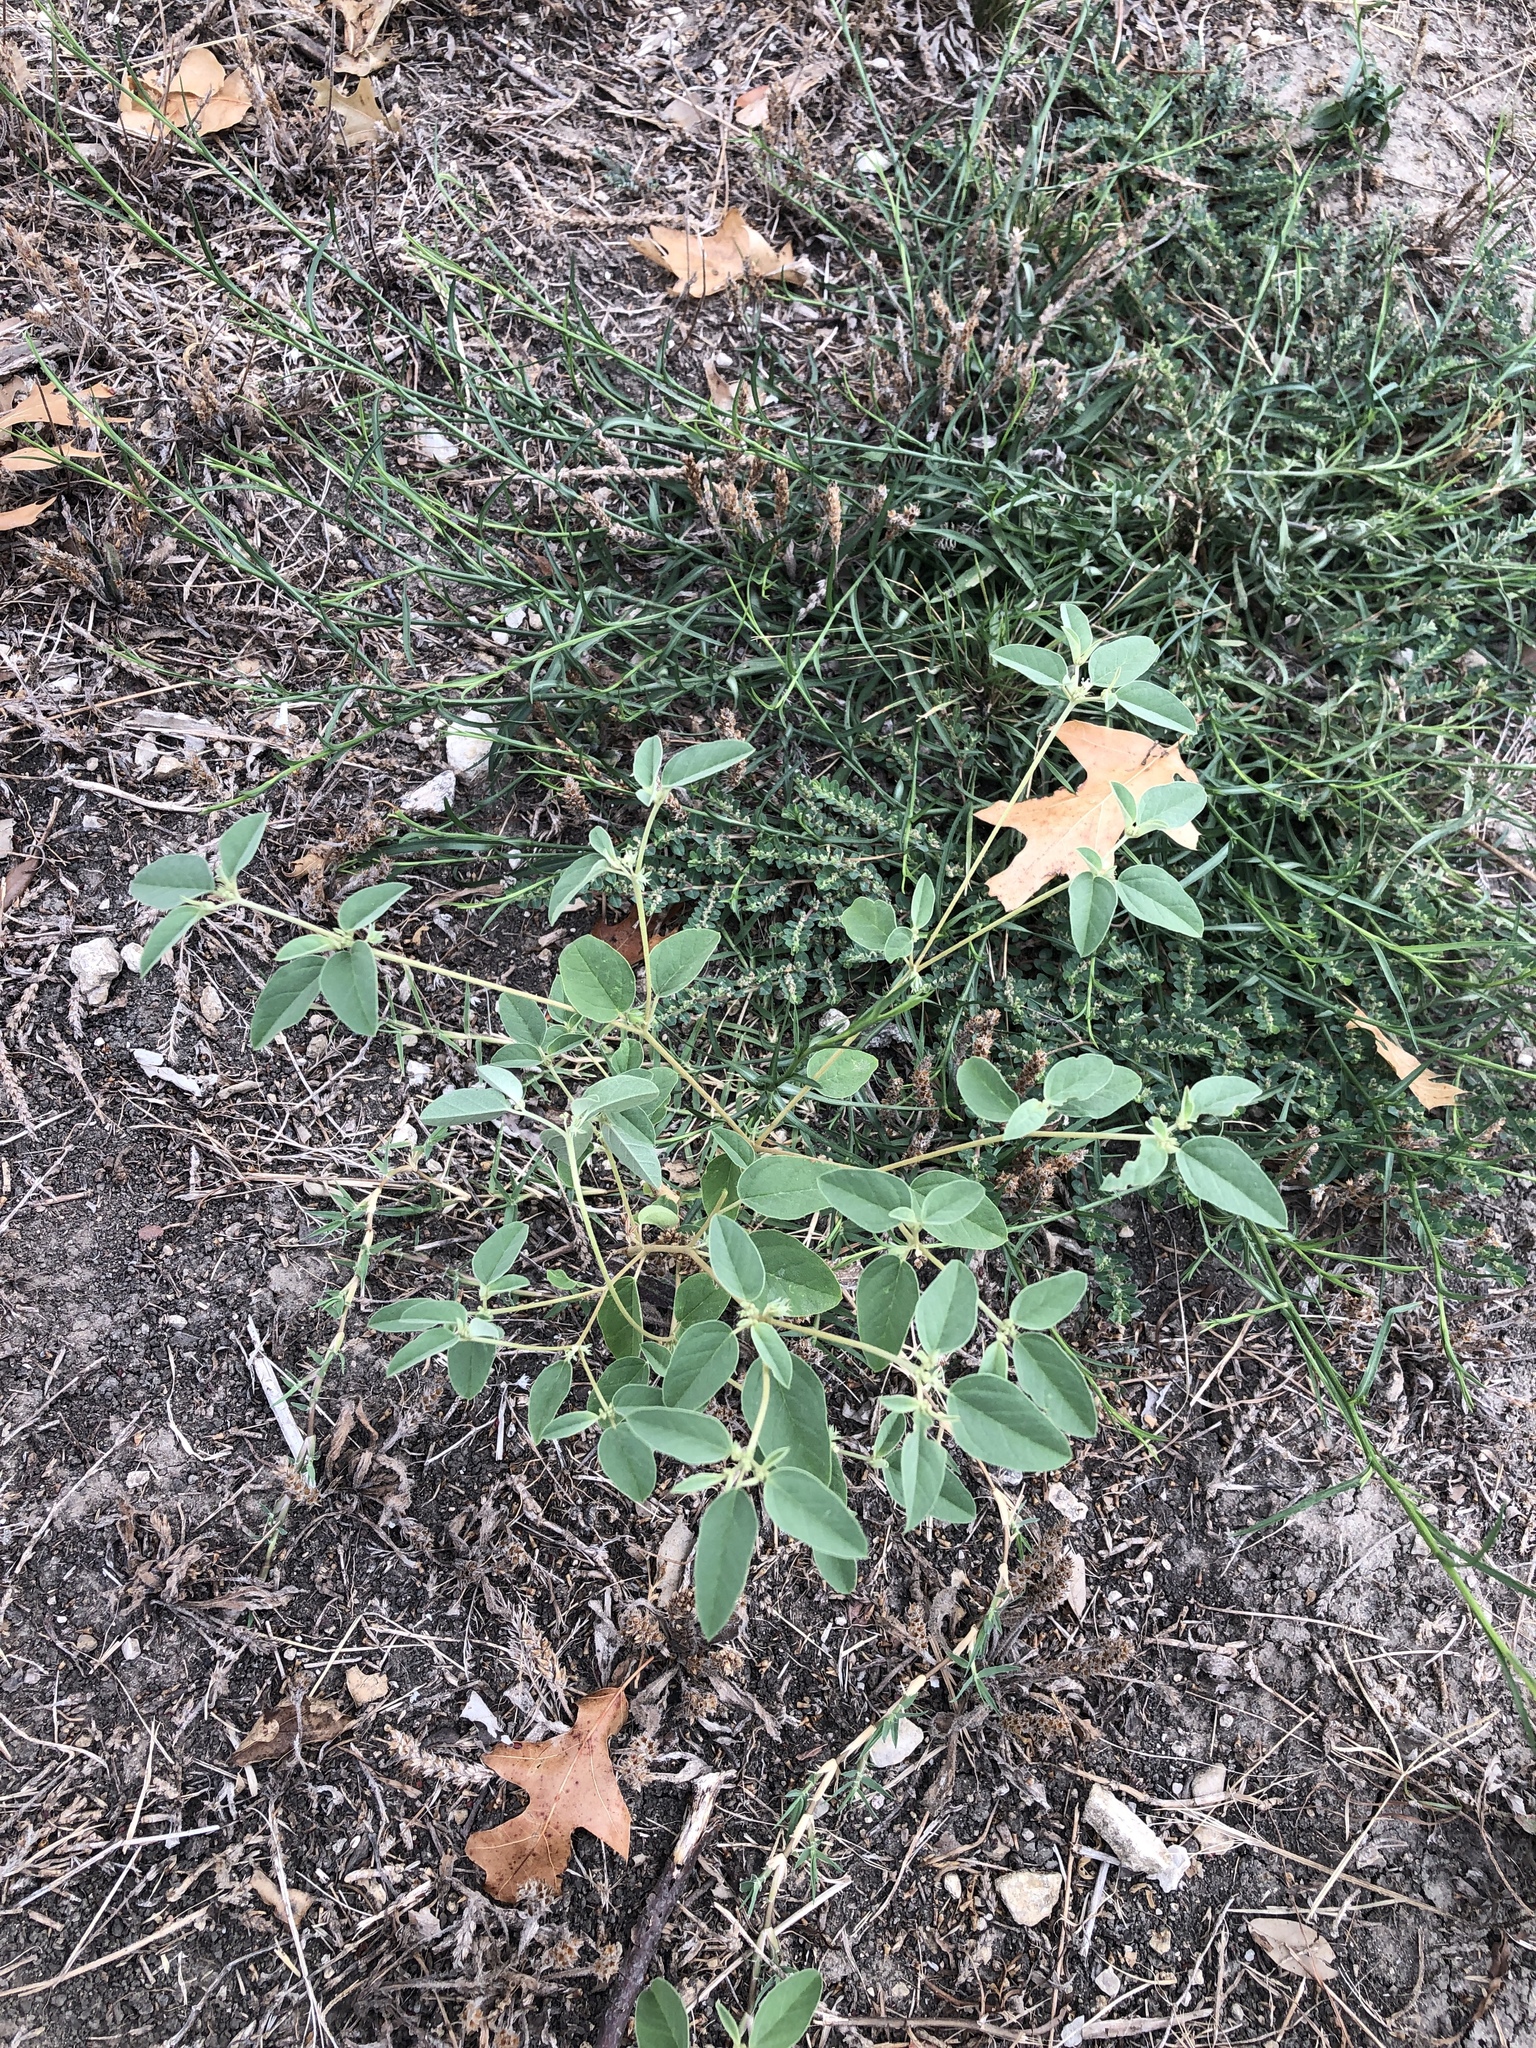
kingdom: Plantae
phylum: Tracheophyta
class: Magnoliopsida
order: Malpighiales
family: Euphorbiaceae
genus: Croton
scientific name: Croton monanthogynus
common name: One-seed croton
